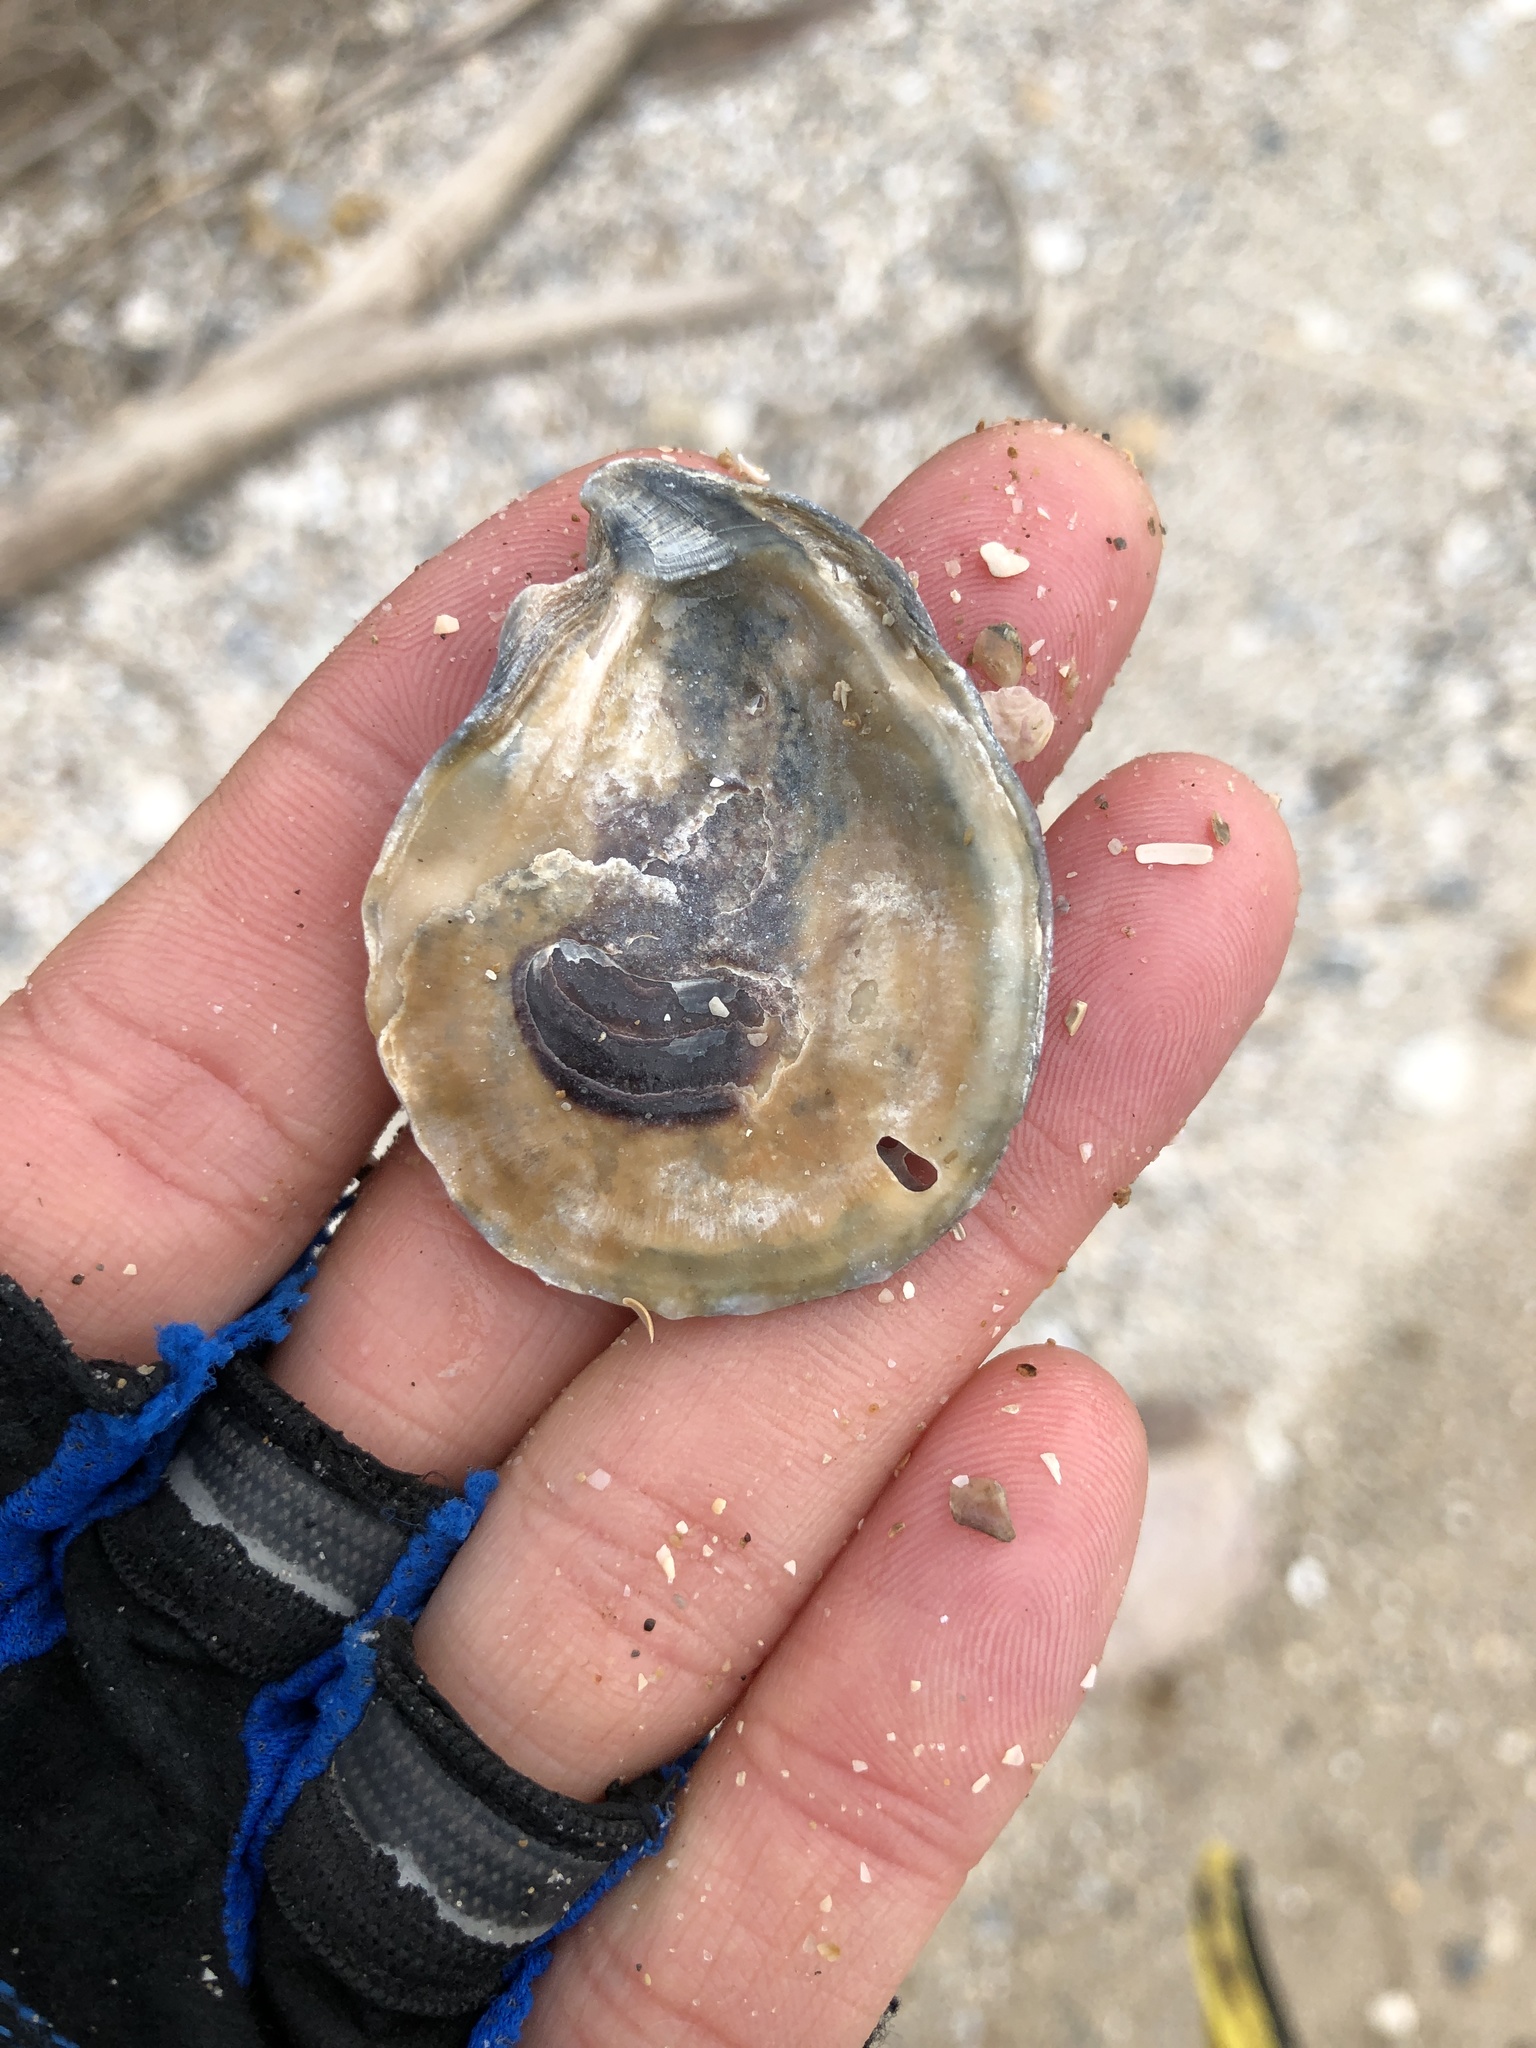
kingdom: Animalia
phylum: Mollusca
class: Bivalvia
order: Ostreida
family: Ostreidae
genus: Crassostrea
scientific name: Crassostrea virginica
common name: American oyster
